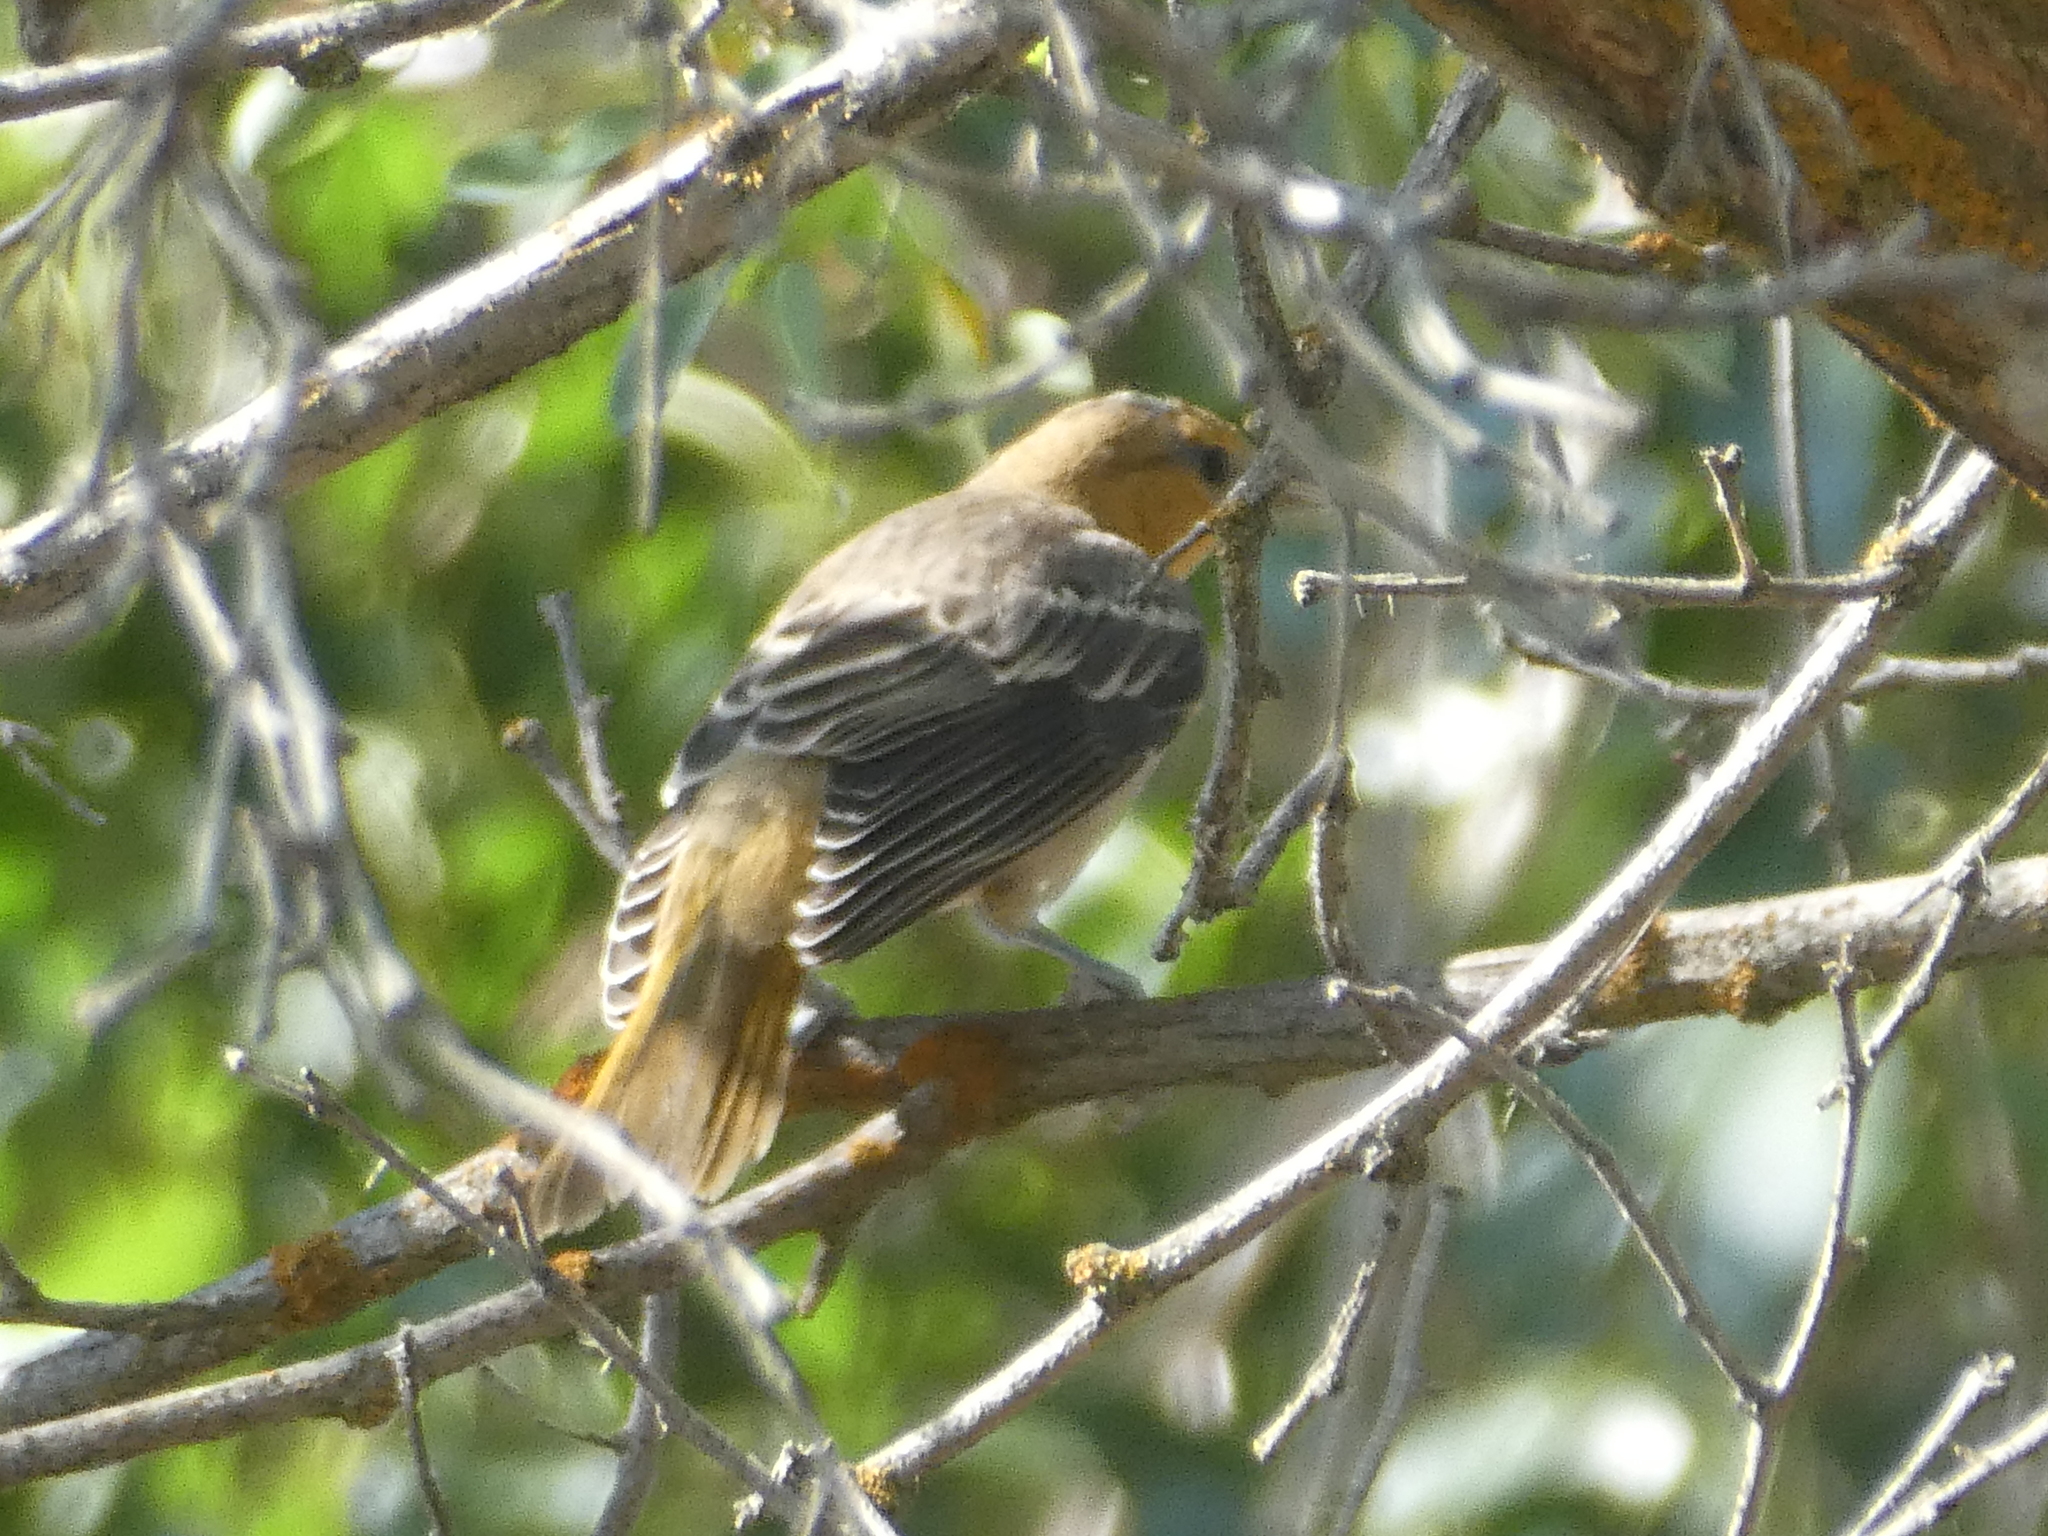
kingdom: Animalia
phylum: Chordata
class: Aves
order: Passeriformes
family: Icteridae
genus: Icterus
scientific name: Icterus bullockii
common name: Bullock's oriole
